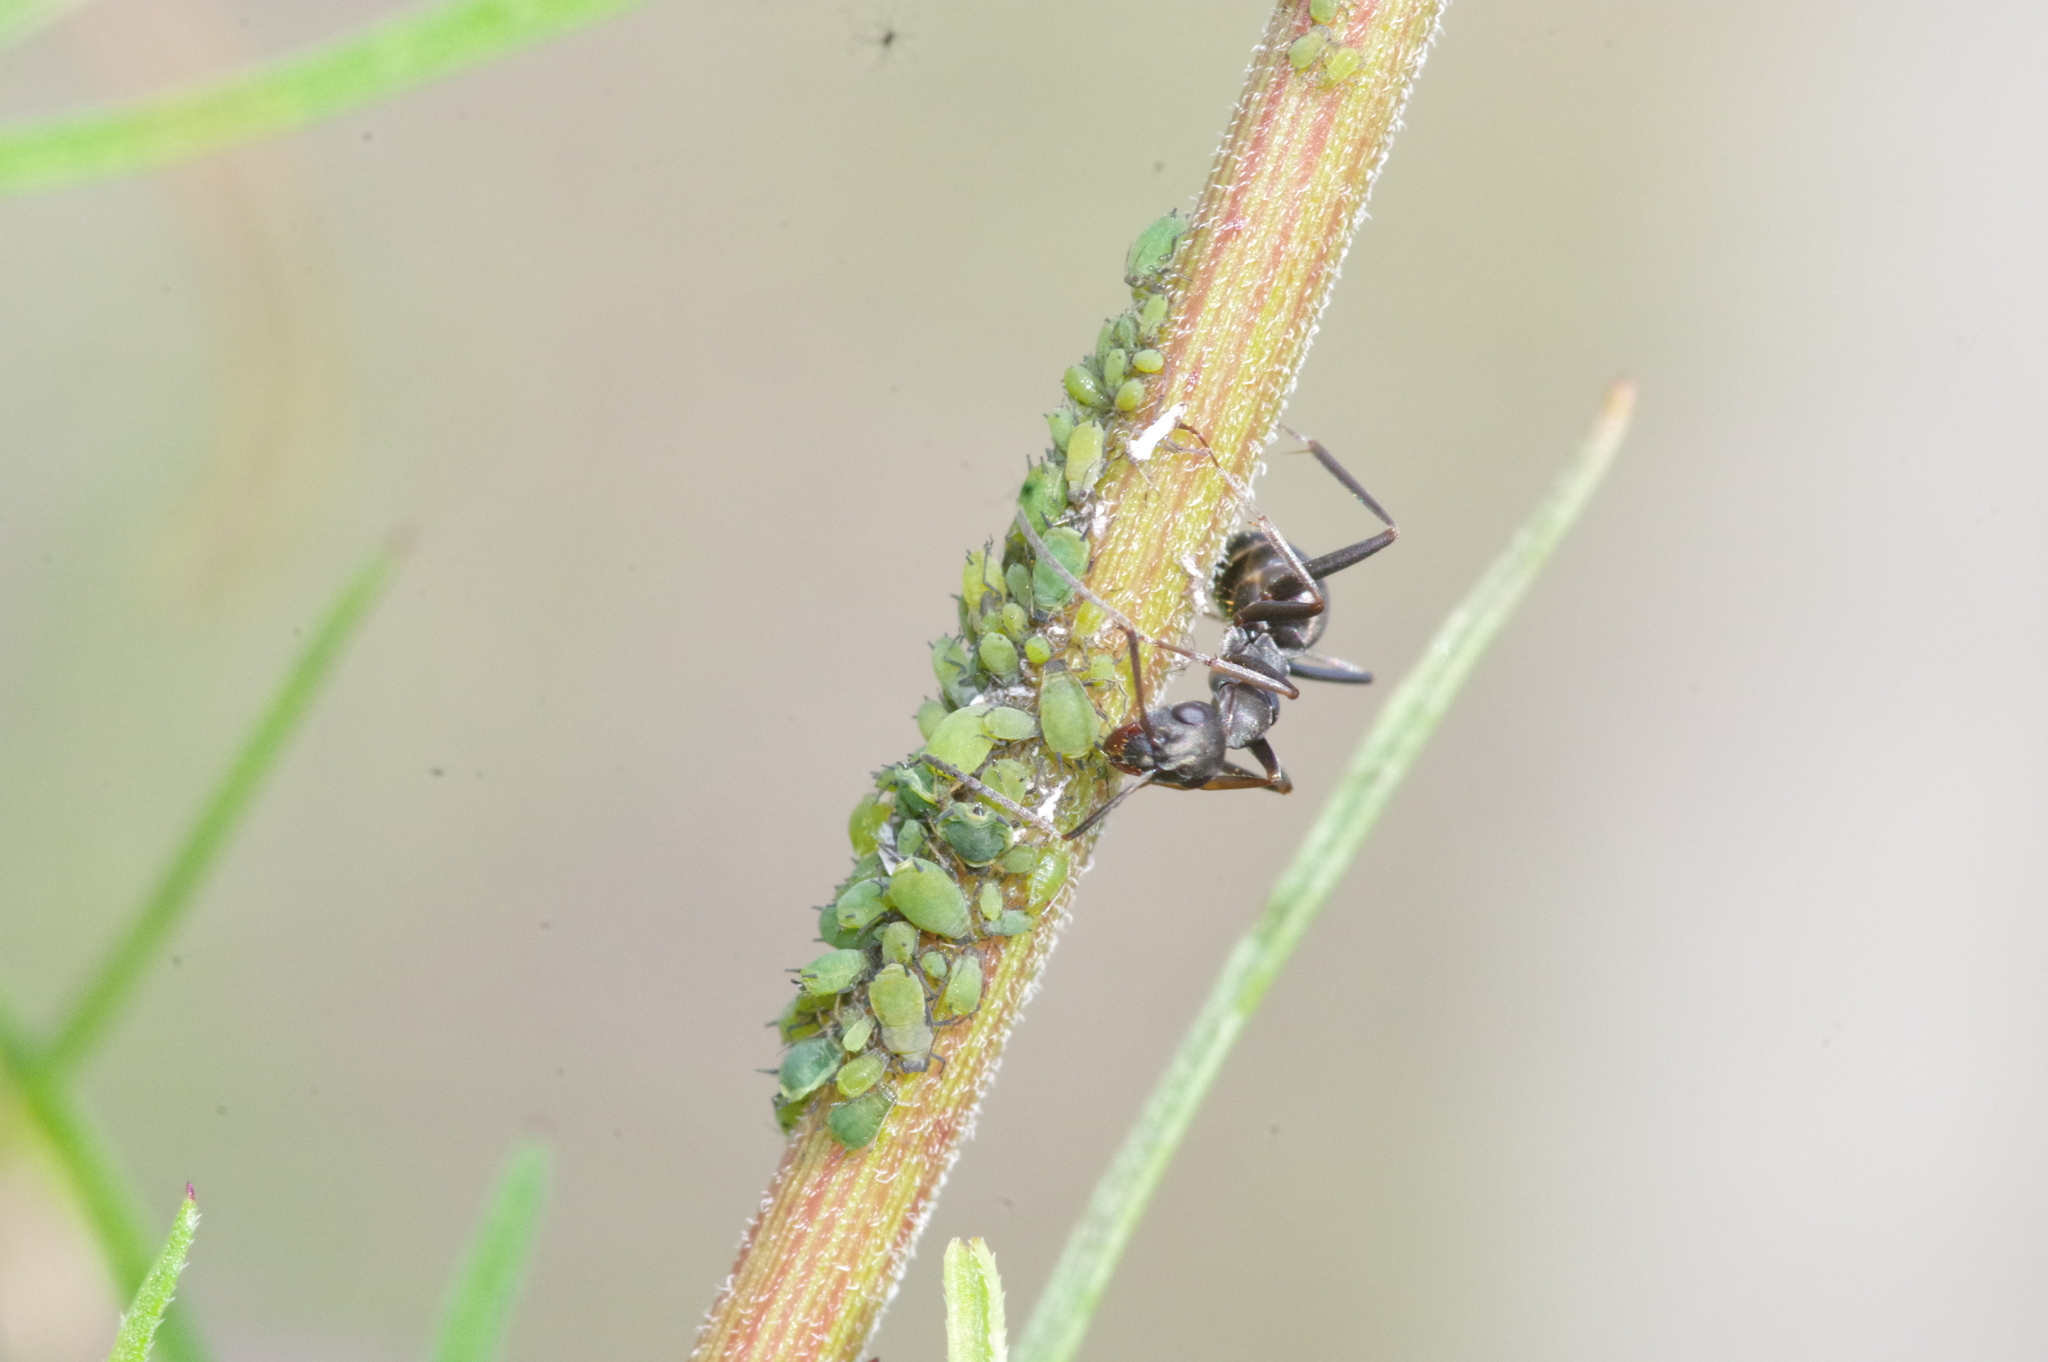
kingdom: Animalia
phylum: Arthropoda
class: Insecta
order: Hymenoptera
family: Formicidae
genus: Formica
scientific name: Formica japonica
